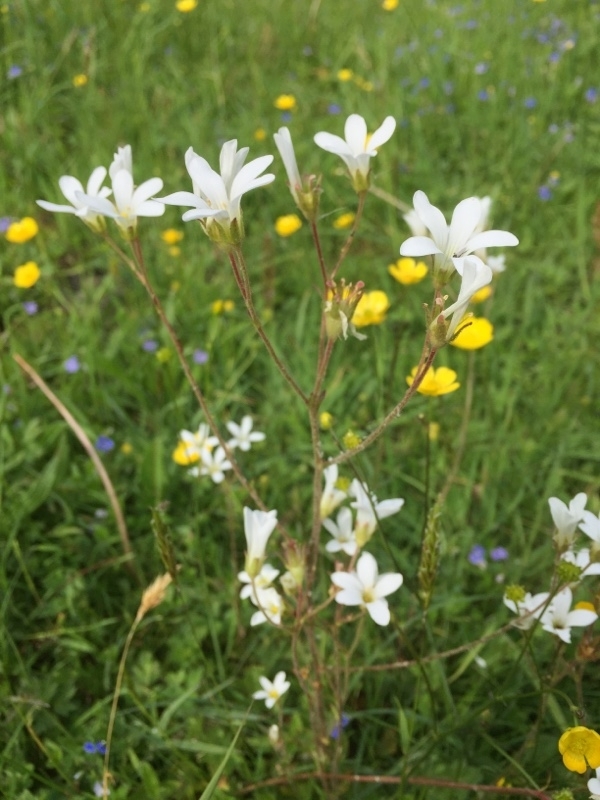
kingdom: Plantae
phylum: Tracheophyta
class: Magnoliopsida
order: Saxifragales
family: Saxifragaceae
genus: Saxifraga
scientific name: Saxifraga granulata
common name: Meadow saxifrage
